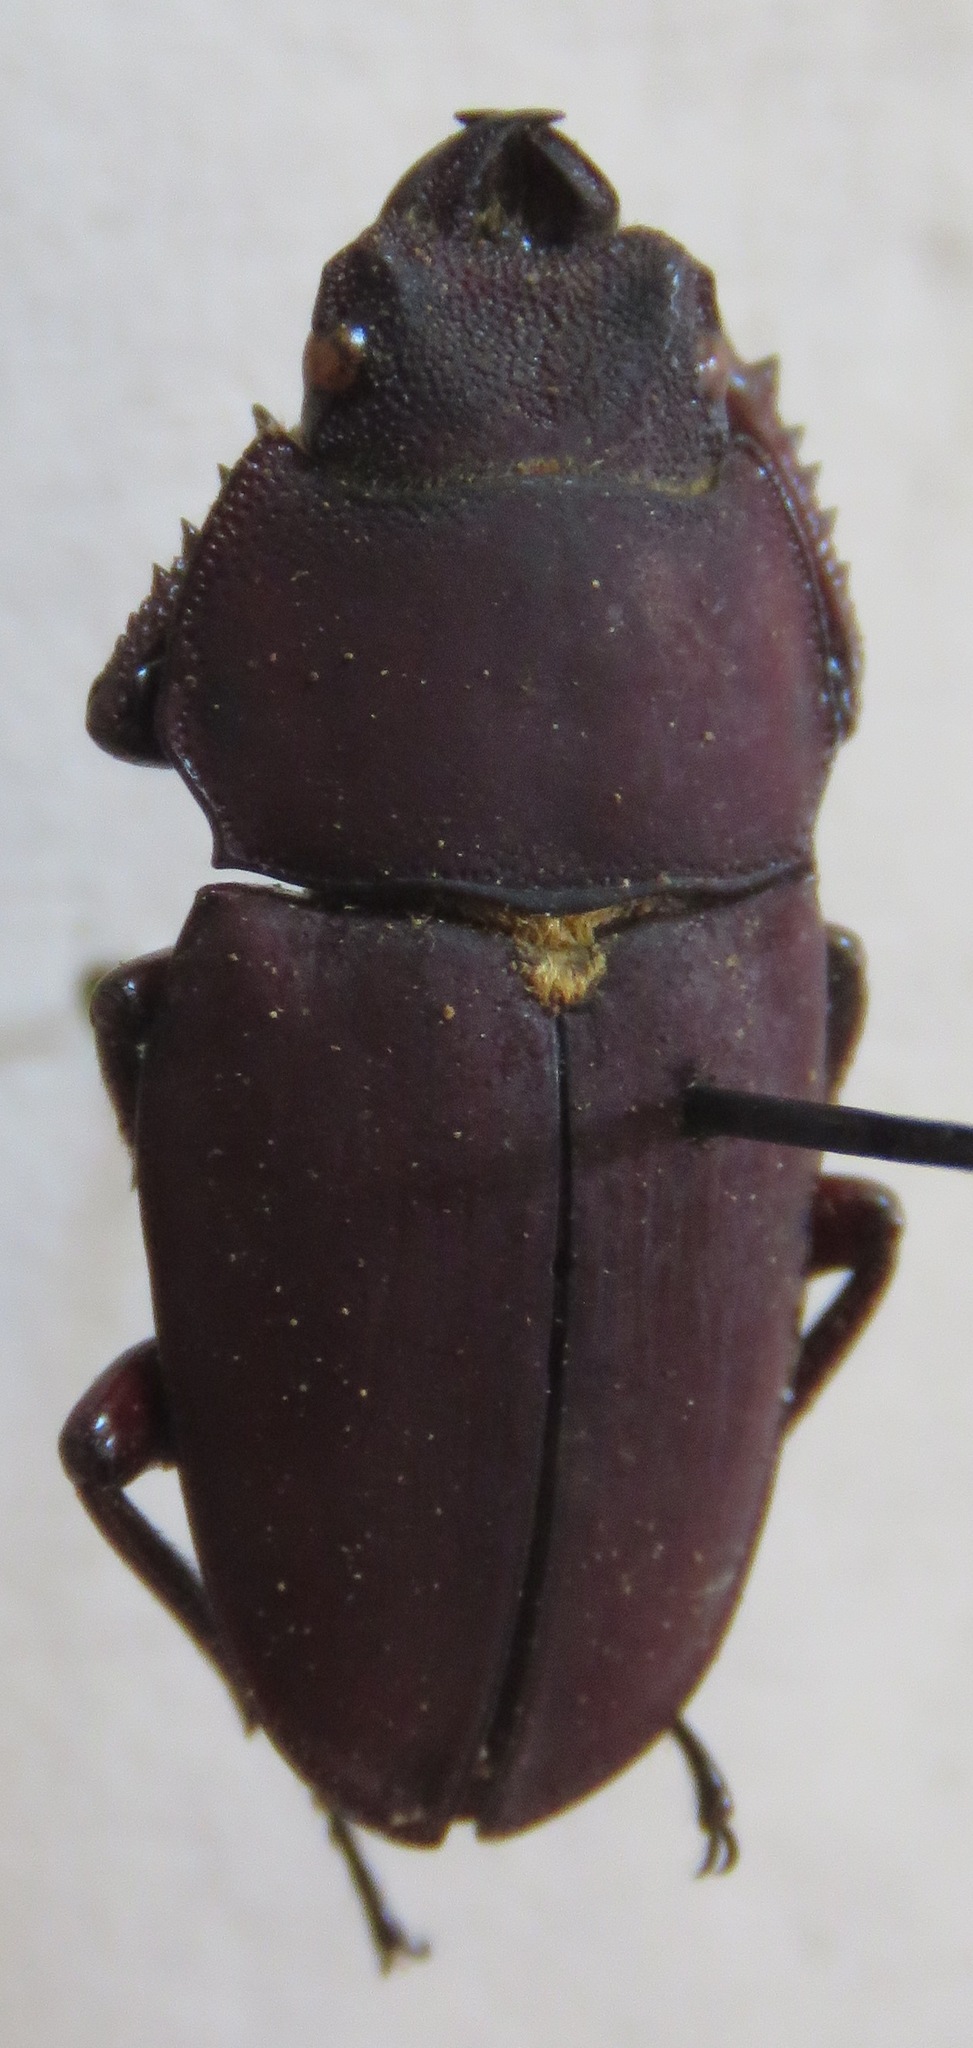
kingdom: Animalia
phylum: Arthropoda
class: Insecta
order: Coleoptera
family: Lucanidae
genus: Leptinopterus
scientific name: Leptinopterus ibex
